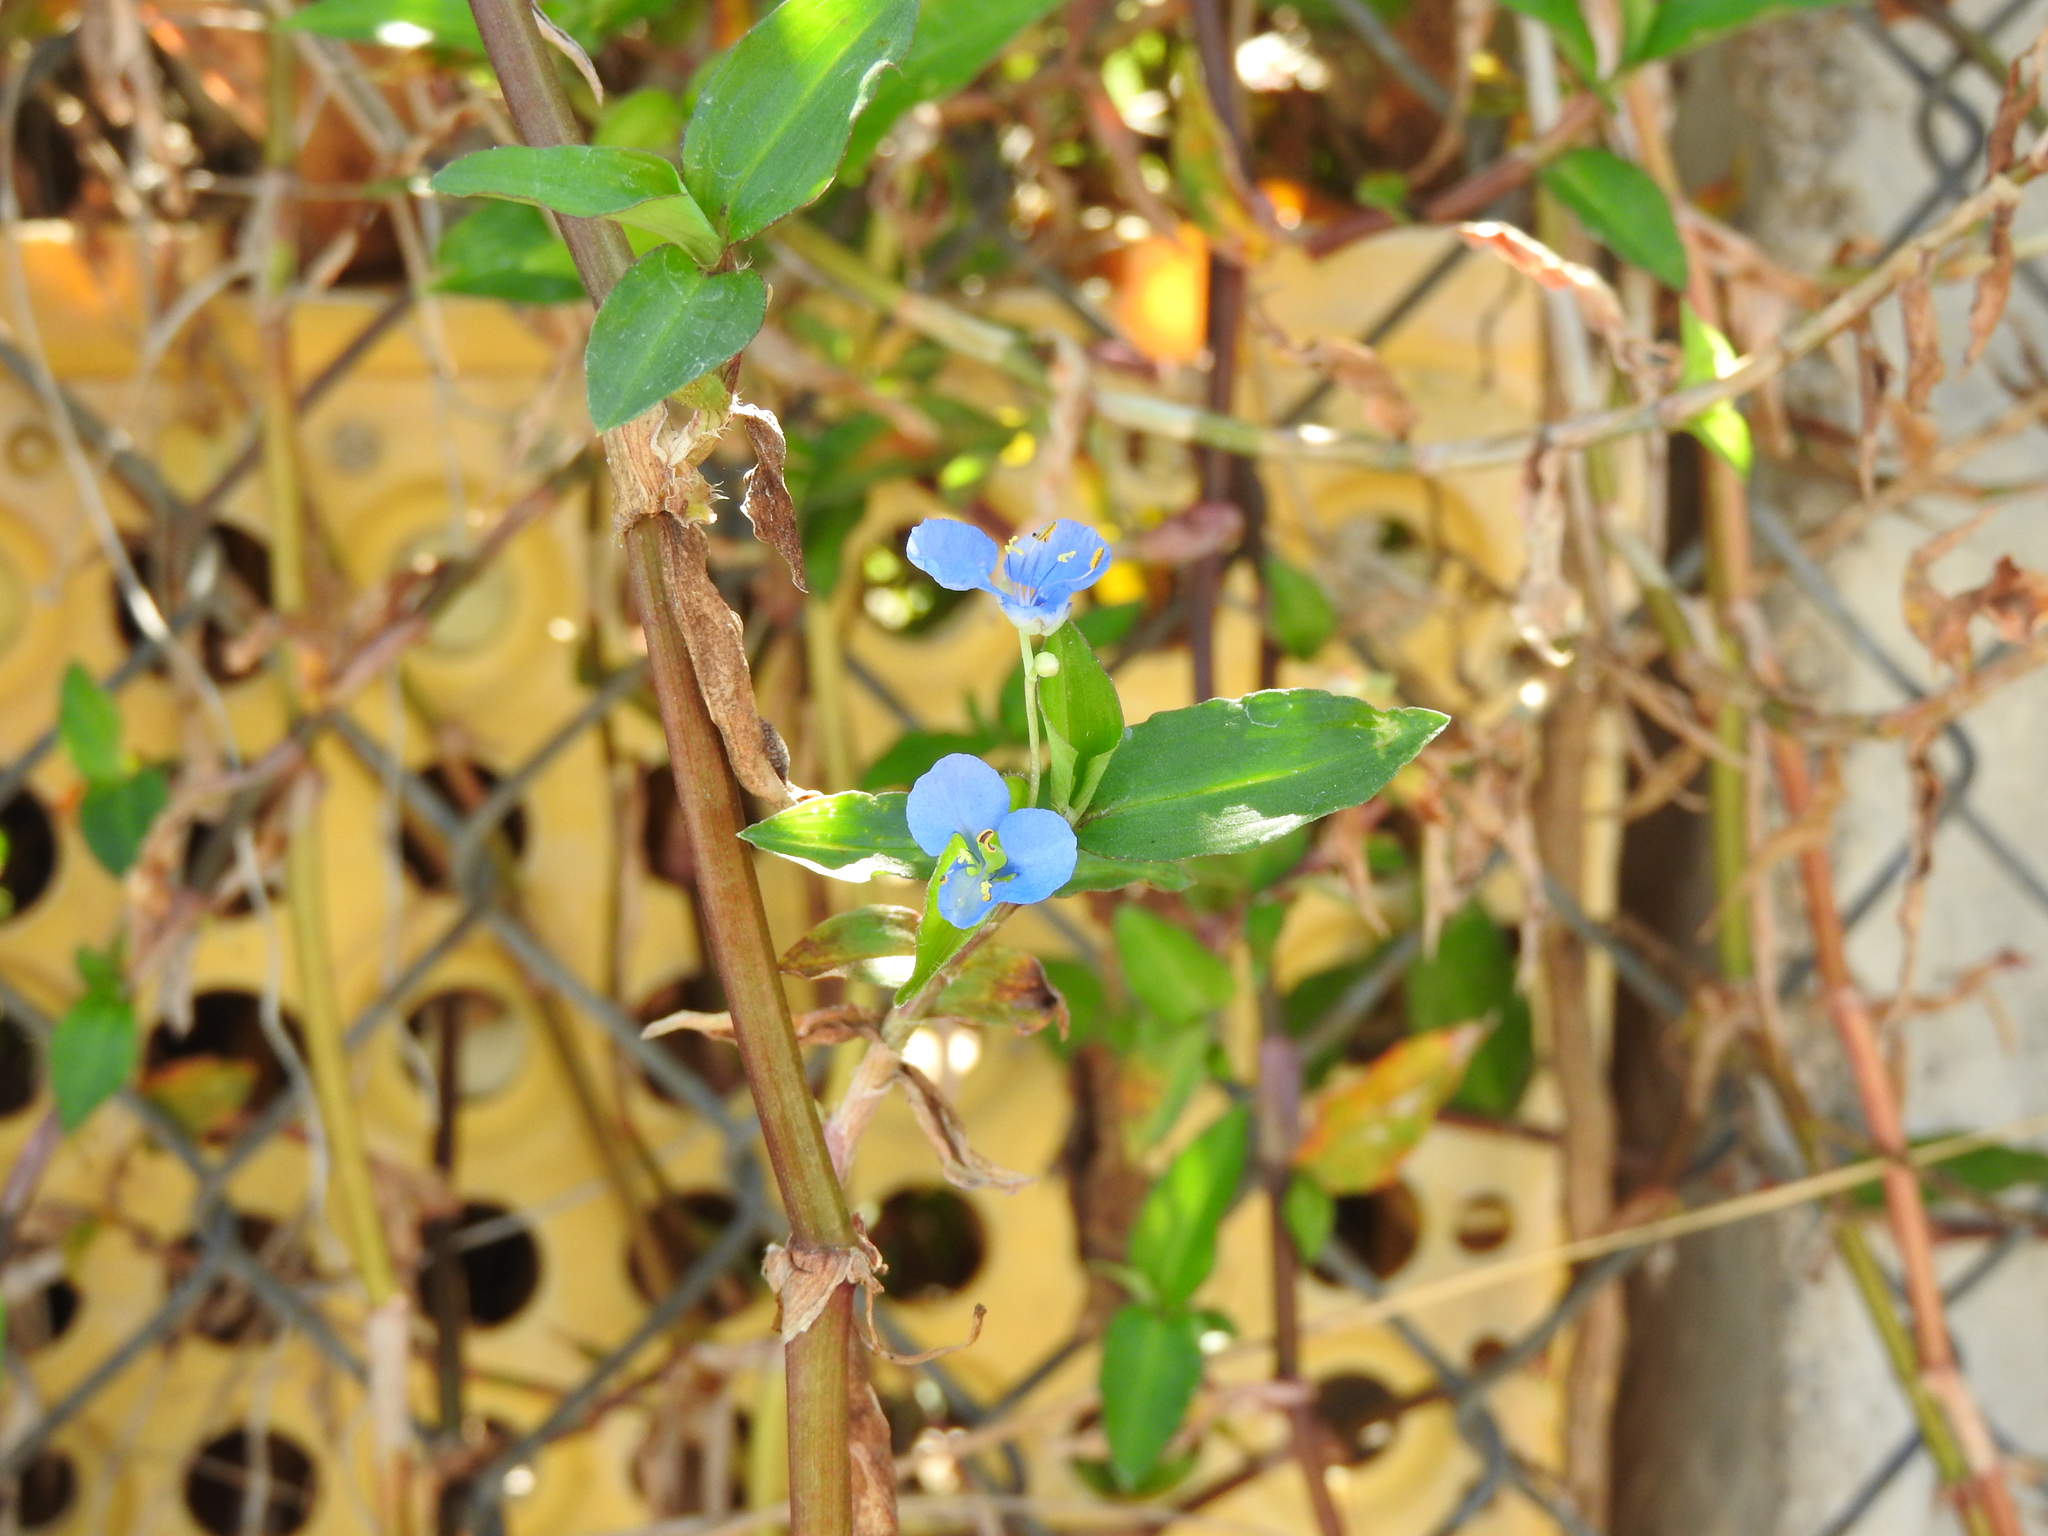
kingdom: Plantae
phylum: Tracheophyta
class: Liliopsida
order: Commelinales
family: Commelinaceae
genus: Commelina
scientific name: Commelina diffusa
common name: Climbing dayflower
